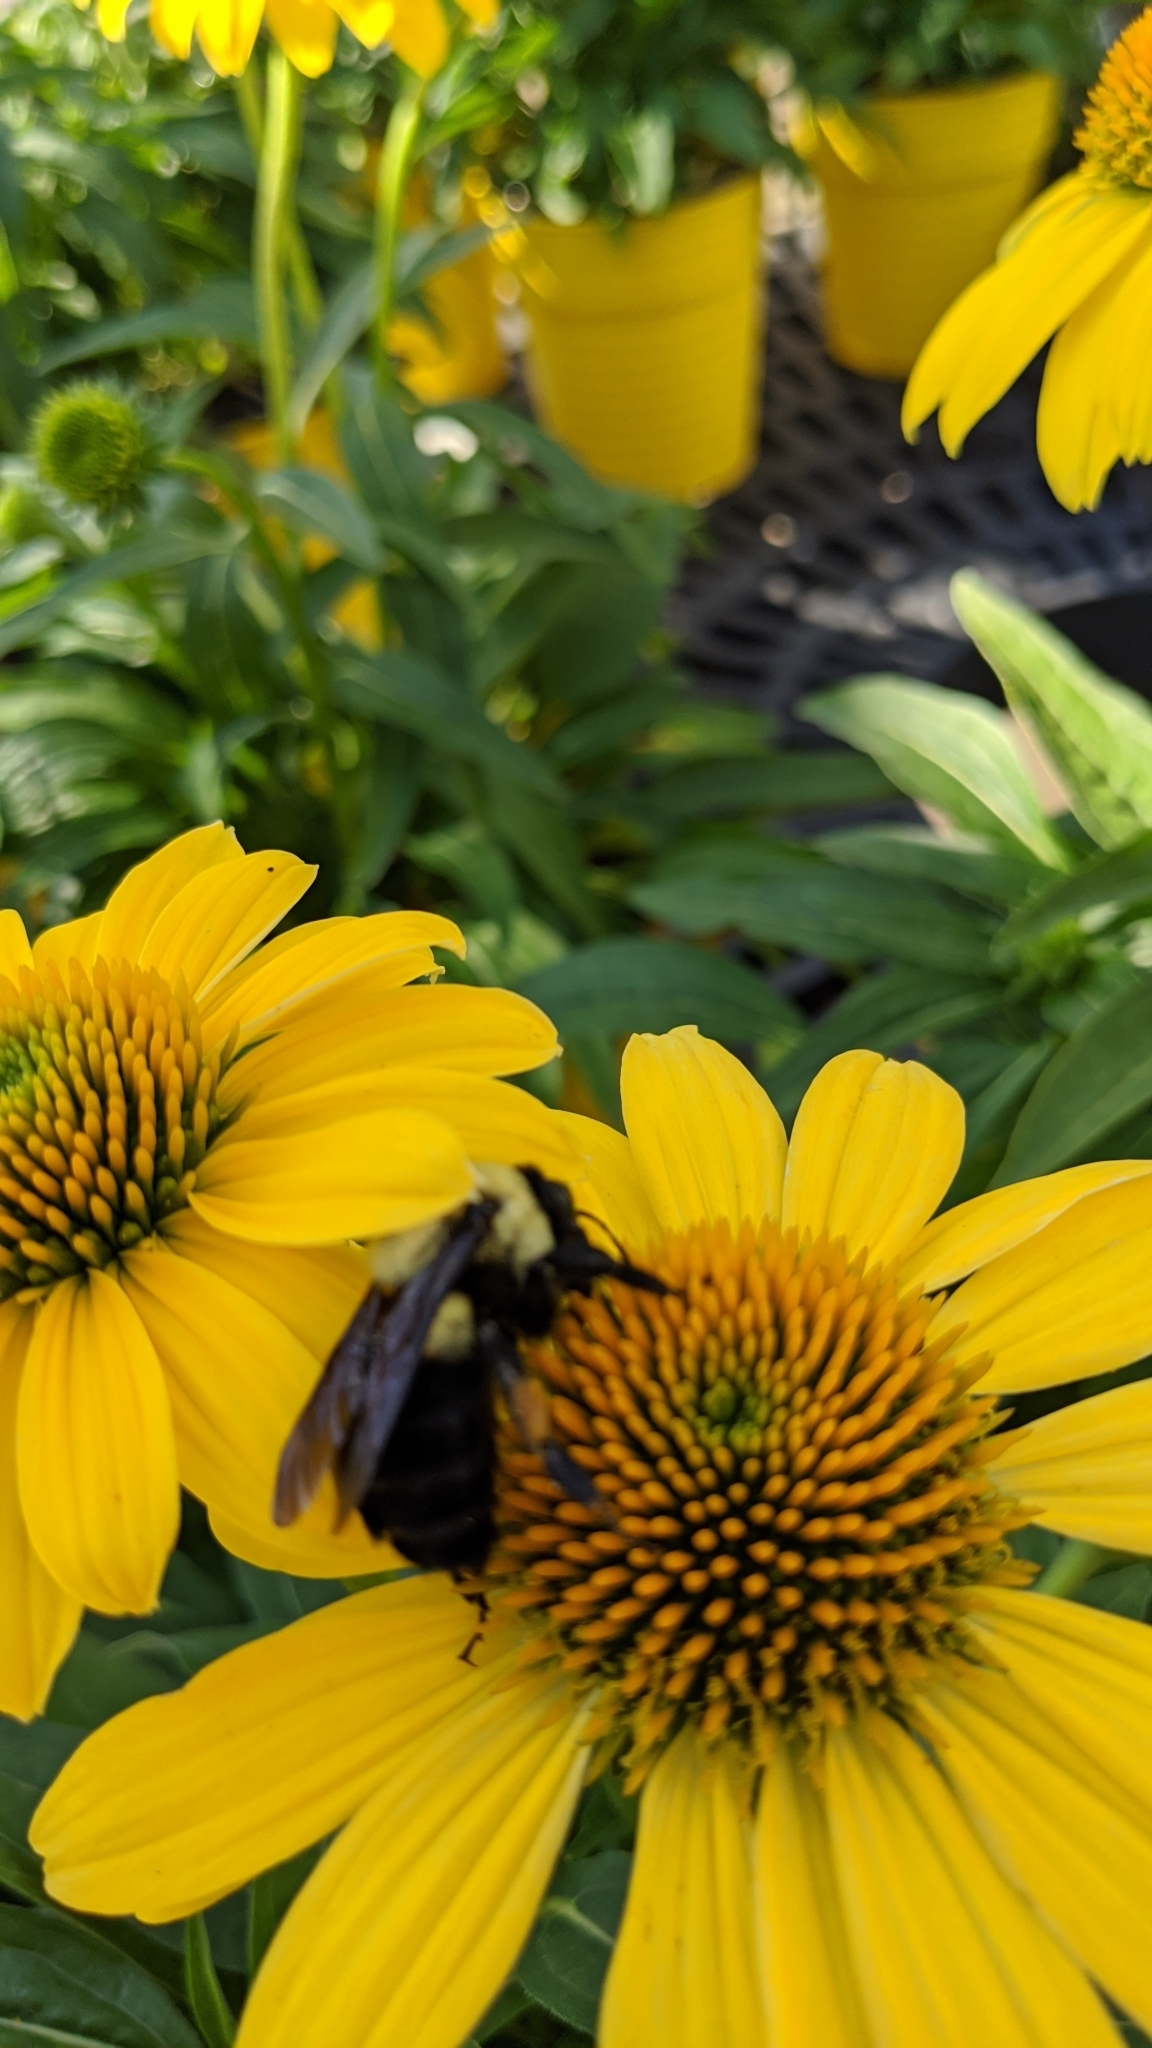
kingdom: Animalia
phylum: Arthropoda
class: Insecta
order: Hymenoptera
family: Apidae
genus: Bombus
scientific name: Bombus griseocollis
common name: Brown-belted bumble bee
